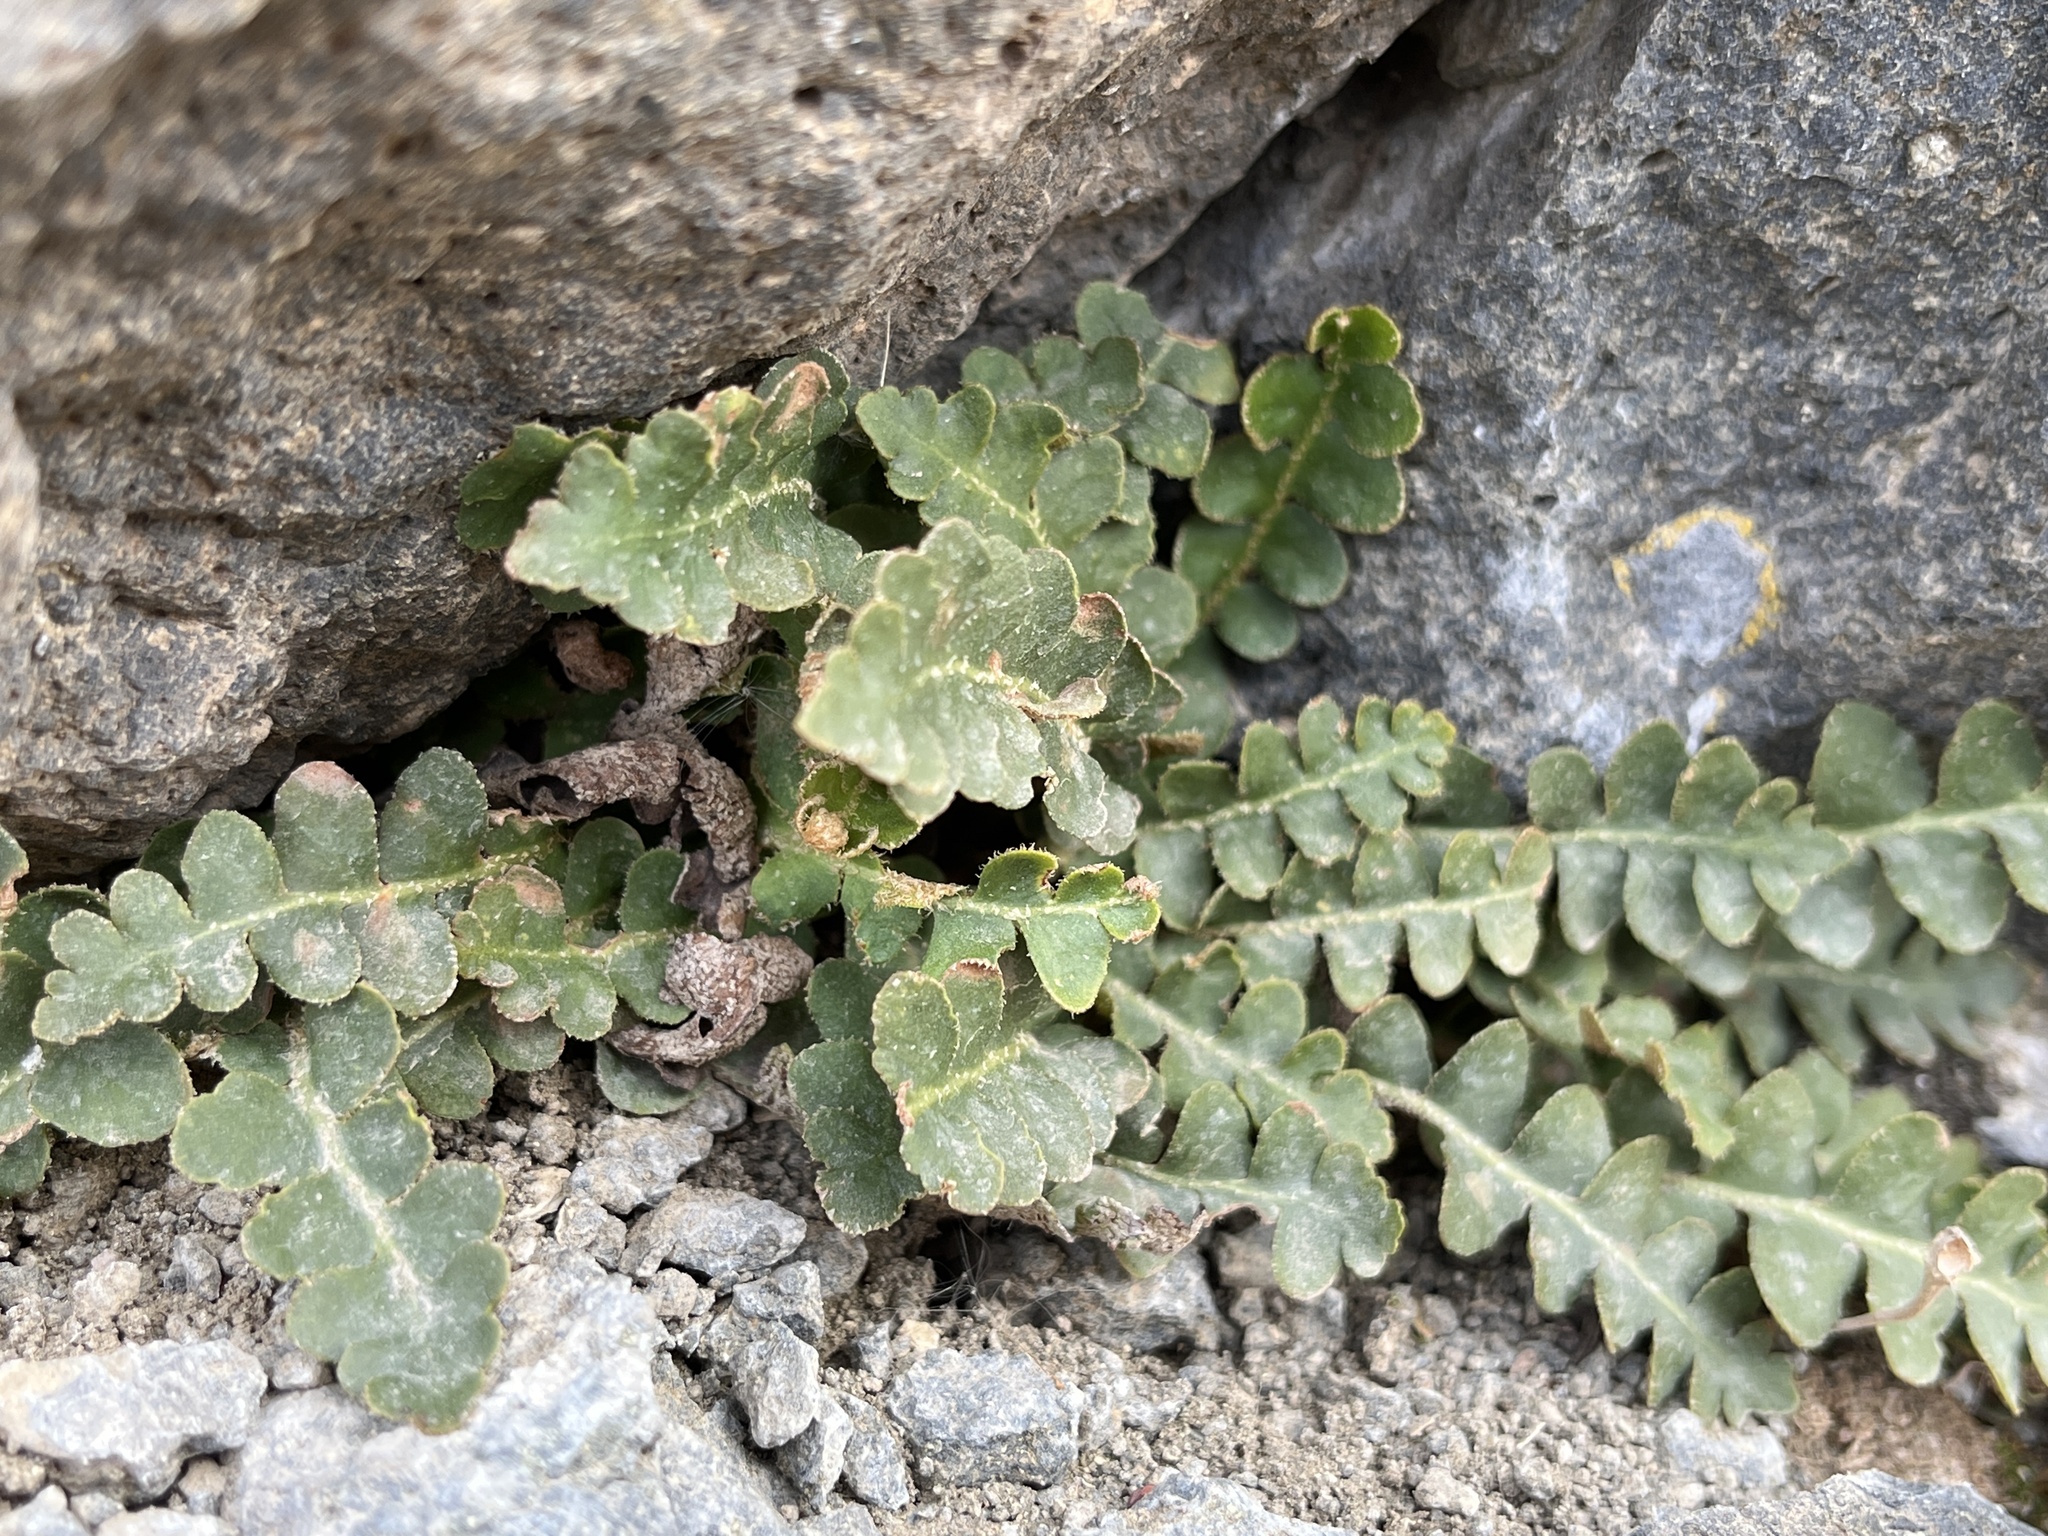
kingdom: Plantae
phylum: Tracheophyta
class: Polypodiopsida
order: Polypodiales
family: Aspleniaceae
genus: Asplenium
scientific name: Asplenium ceterach
